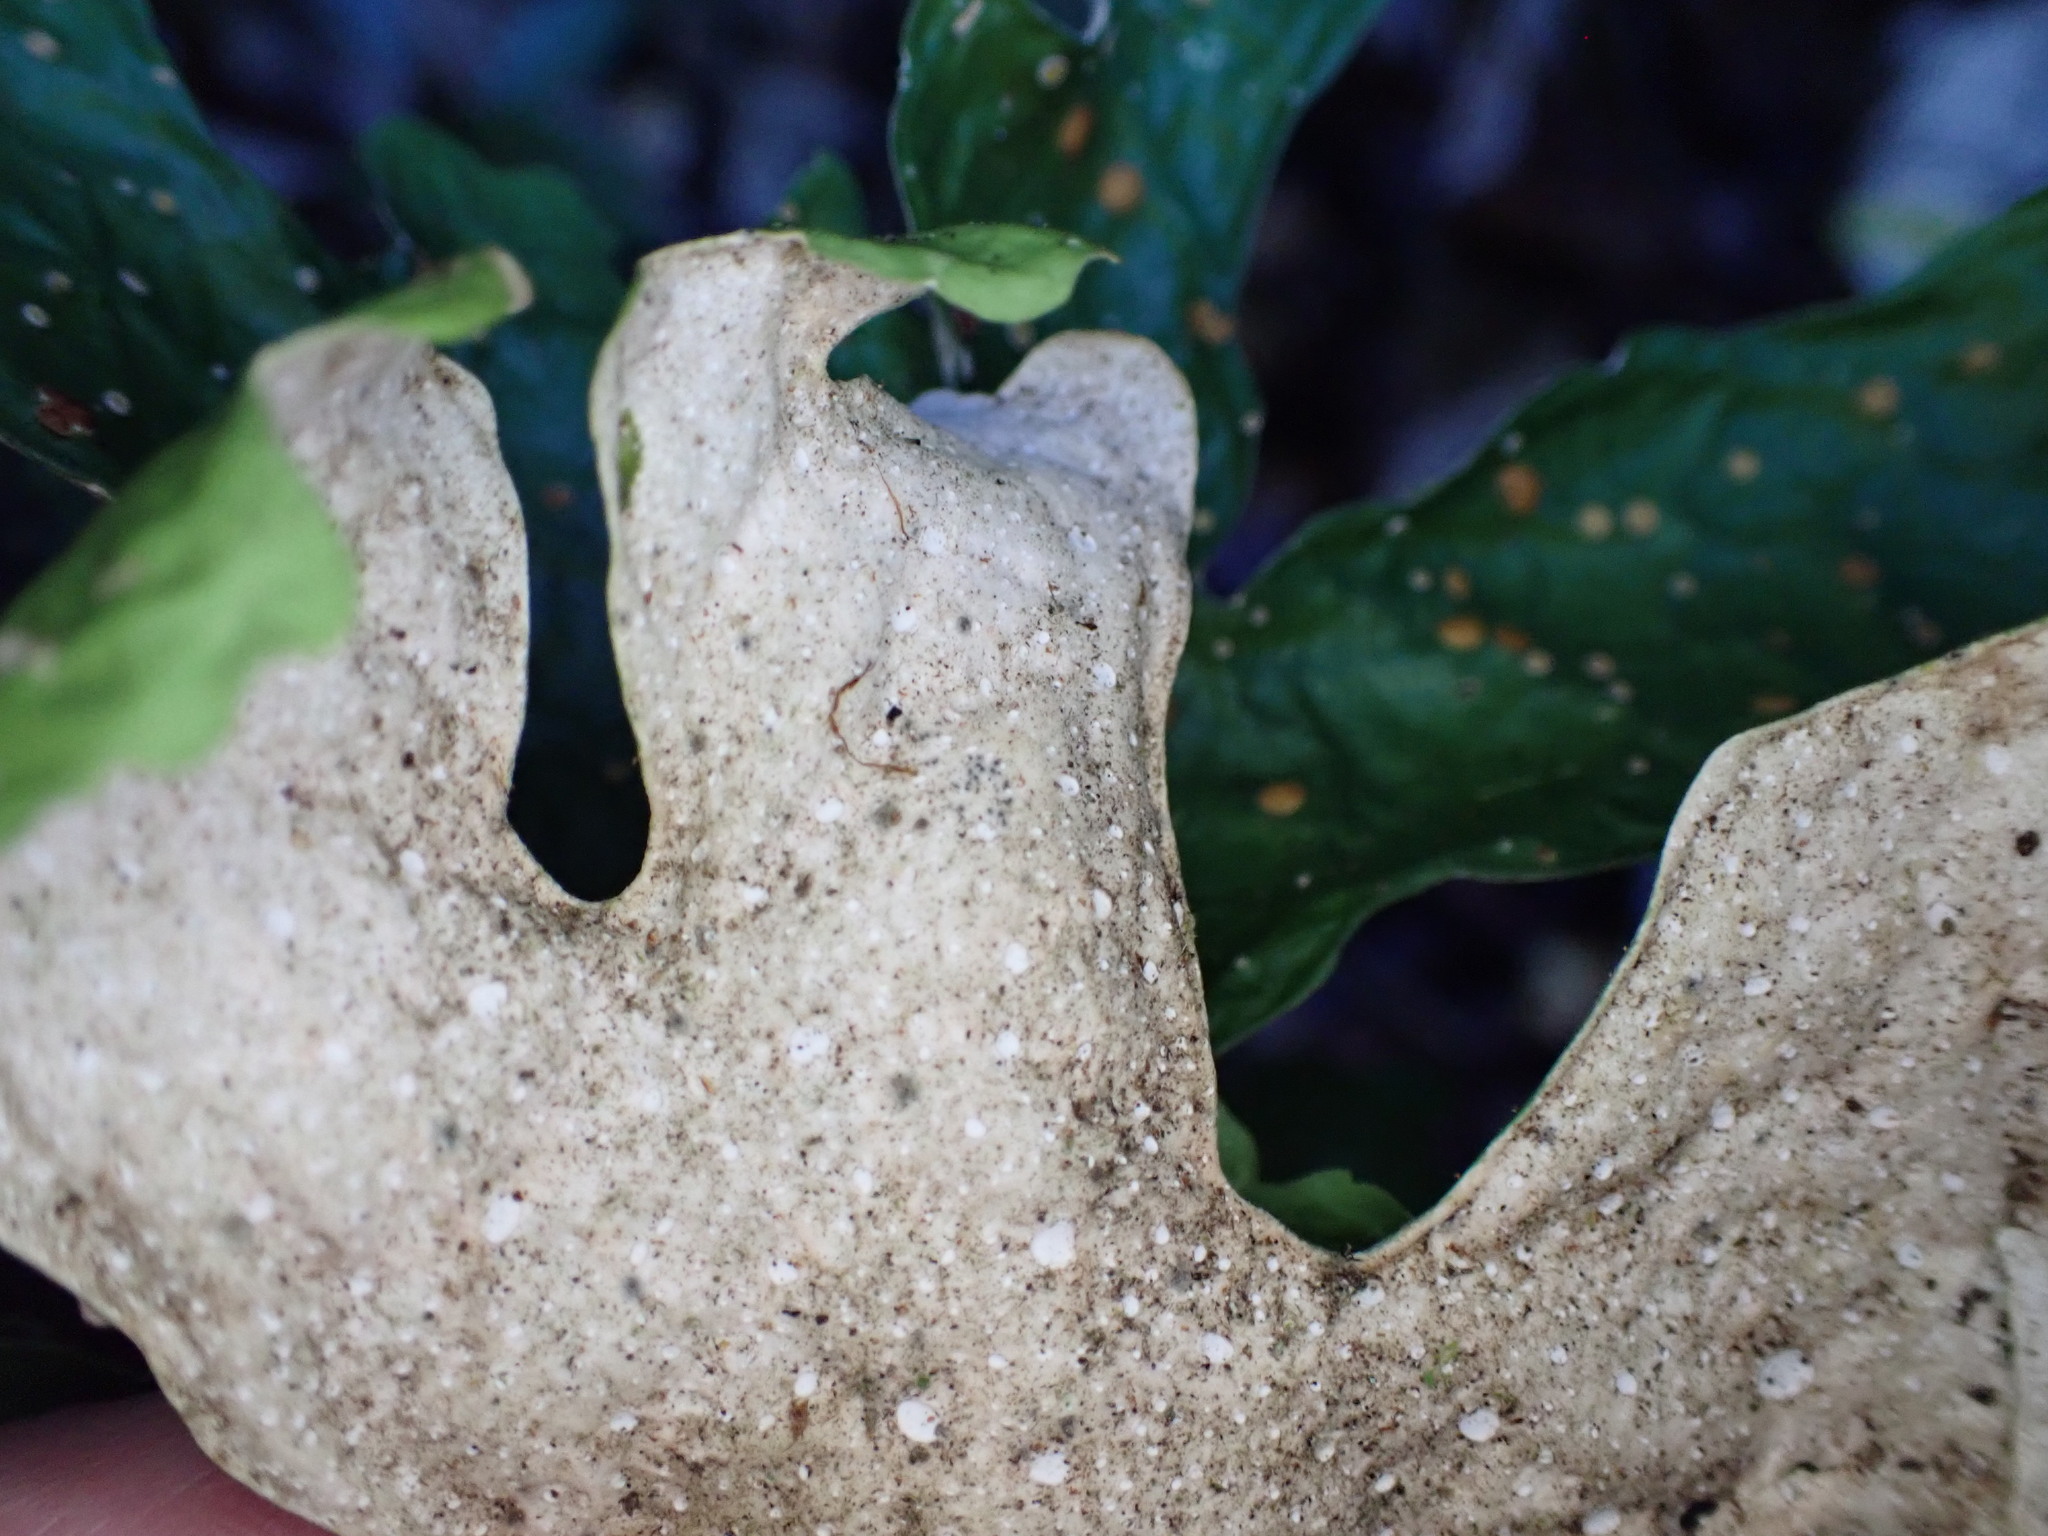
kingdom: Fungi
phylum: Ascomycota
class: Lecanoromycetes
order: Peltigerales
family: Lobariaceae
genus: Sticta
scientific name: Sticta latifrons
